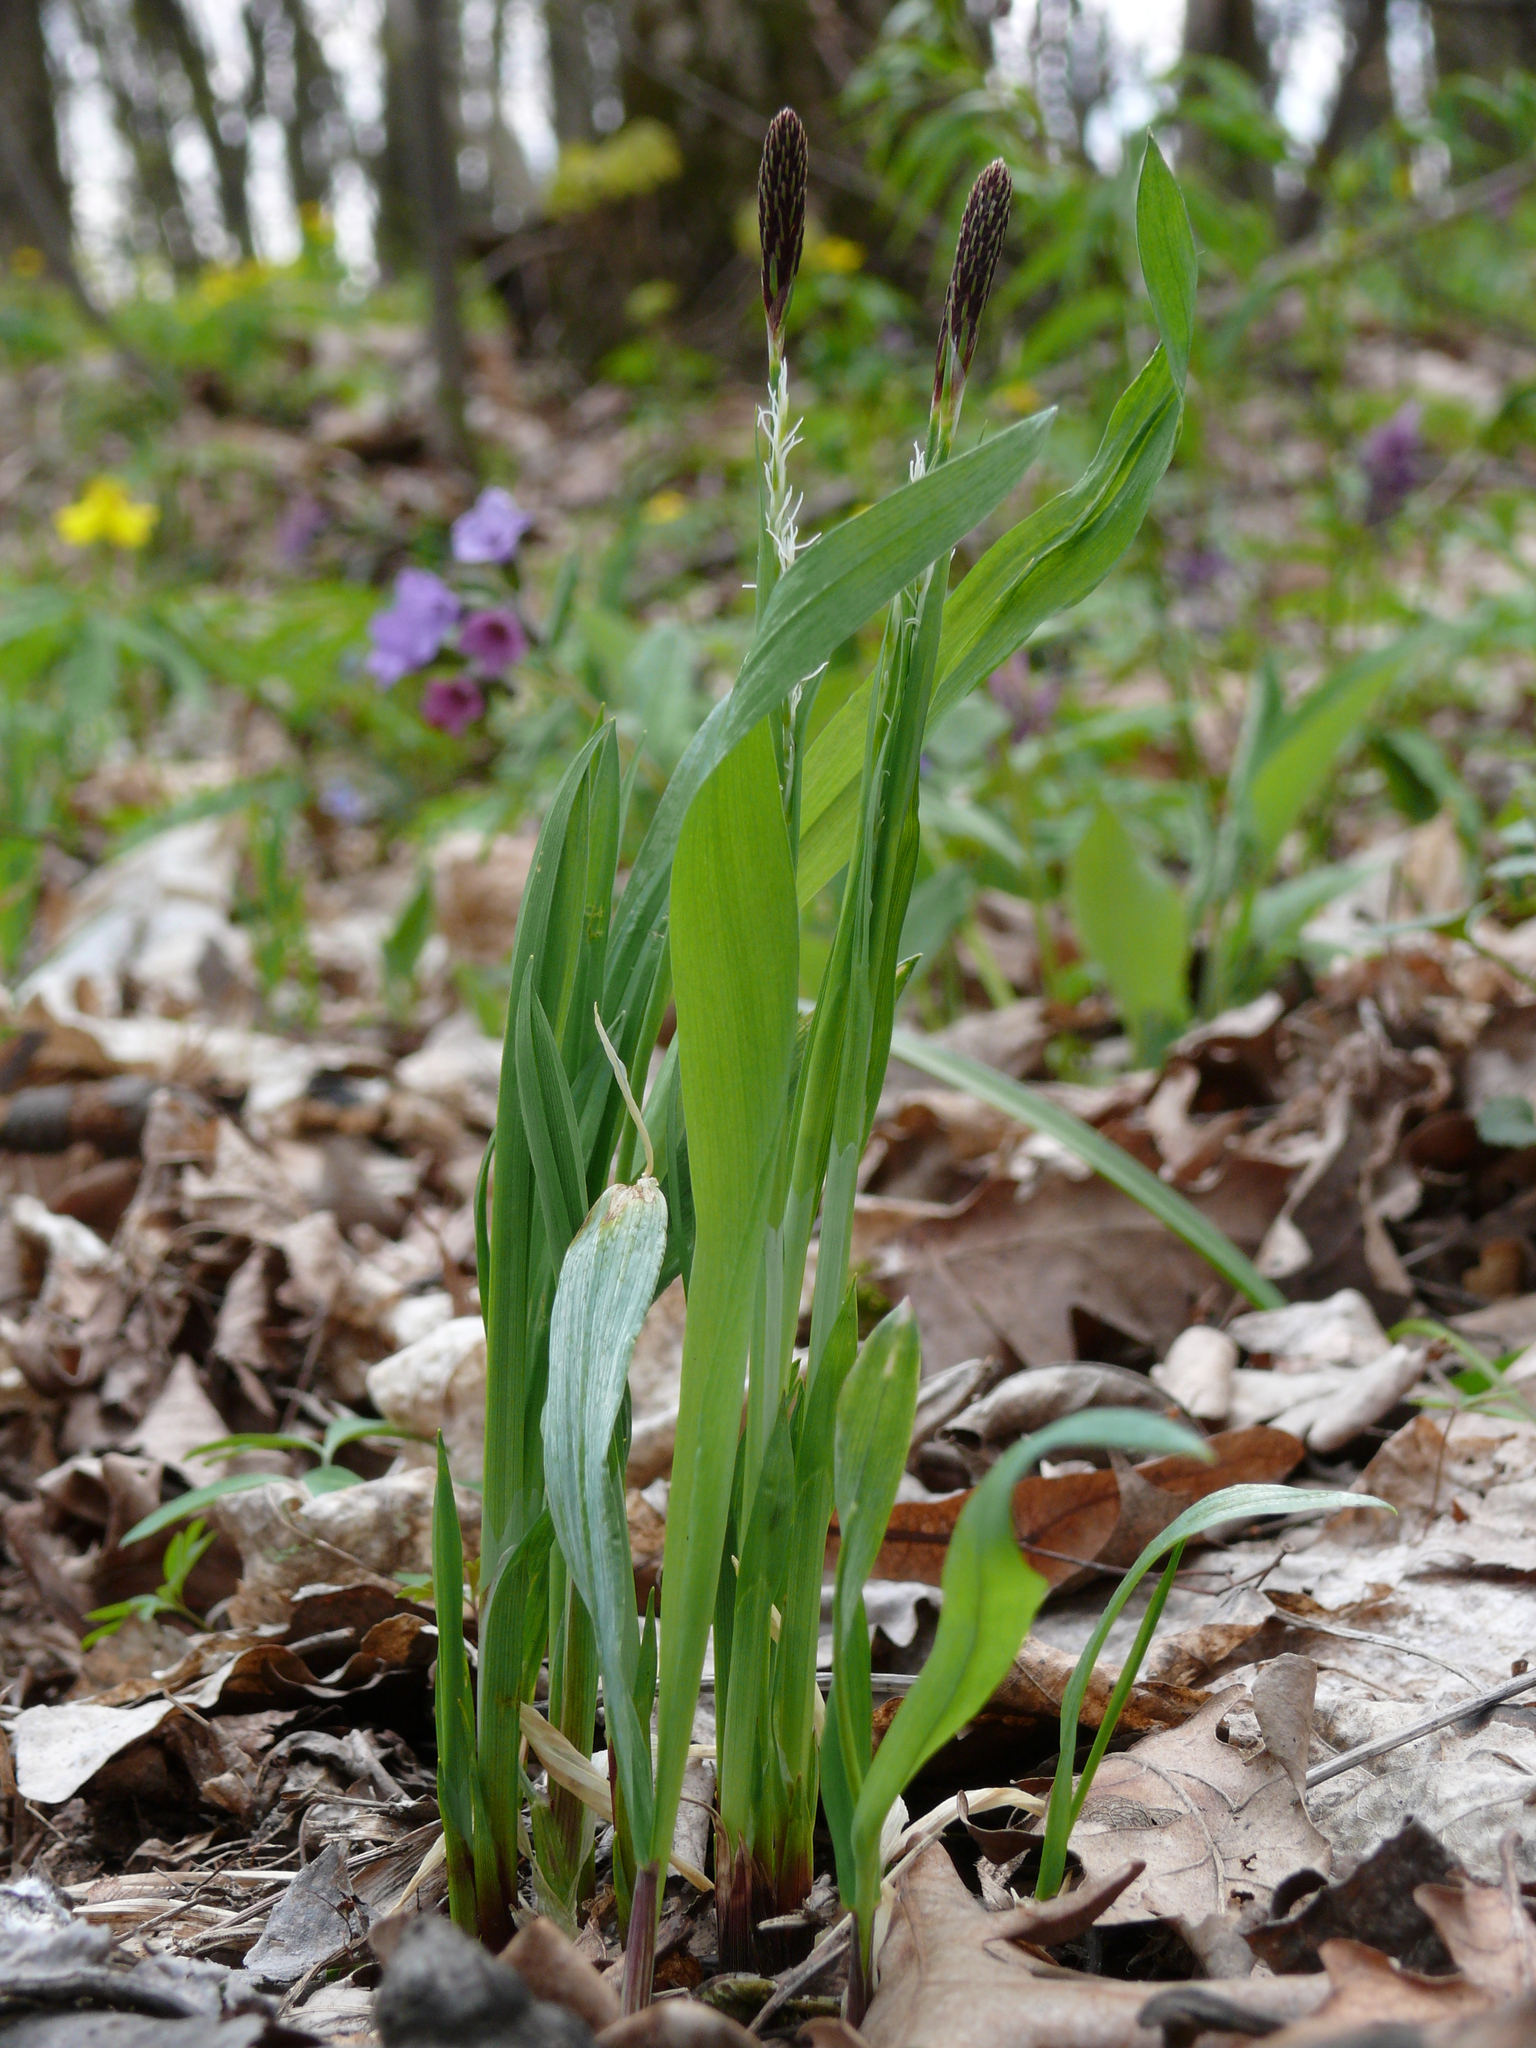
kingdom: Plantae
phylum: Tracheophyta
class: Liliopsida
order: Poales
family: Cyperaceae
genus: Carex
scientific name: Carex pilosa
